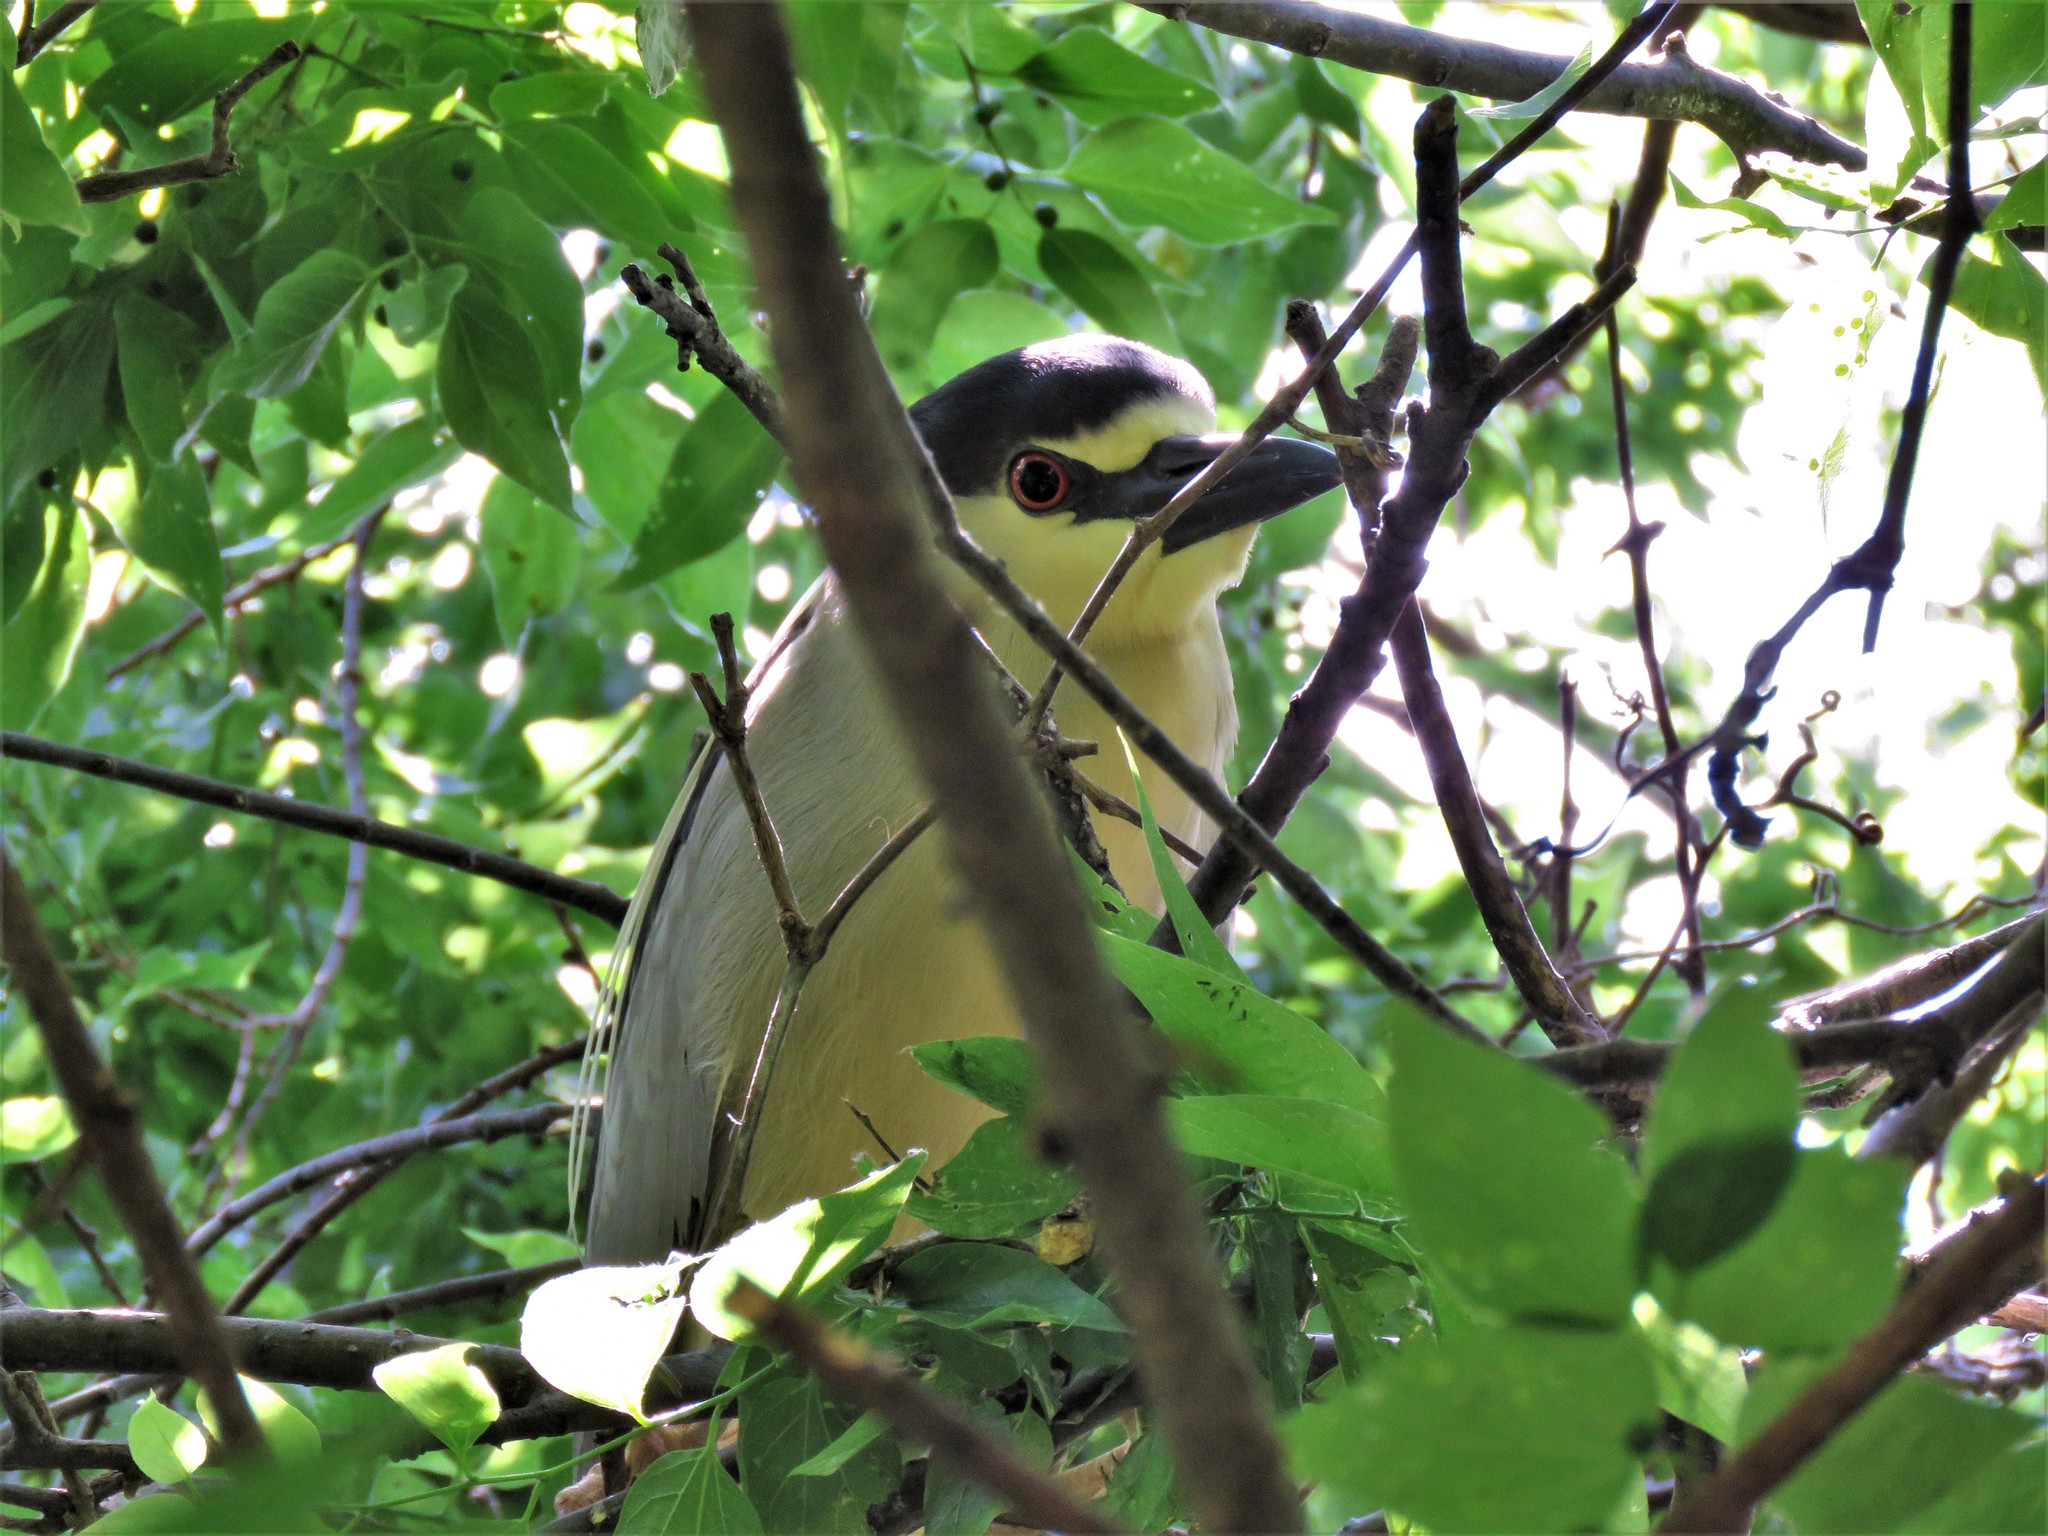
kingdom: Animalia
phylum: Chordata
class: Aves
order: Pelecaniformes
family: Ardeidae
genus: Nycticorax
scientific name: Nycticorax nycticorax
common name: Black-crowned night heron
